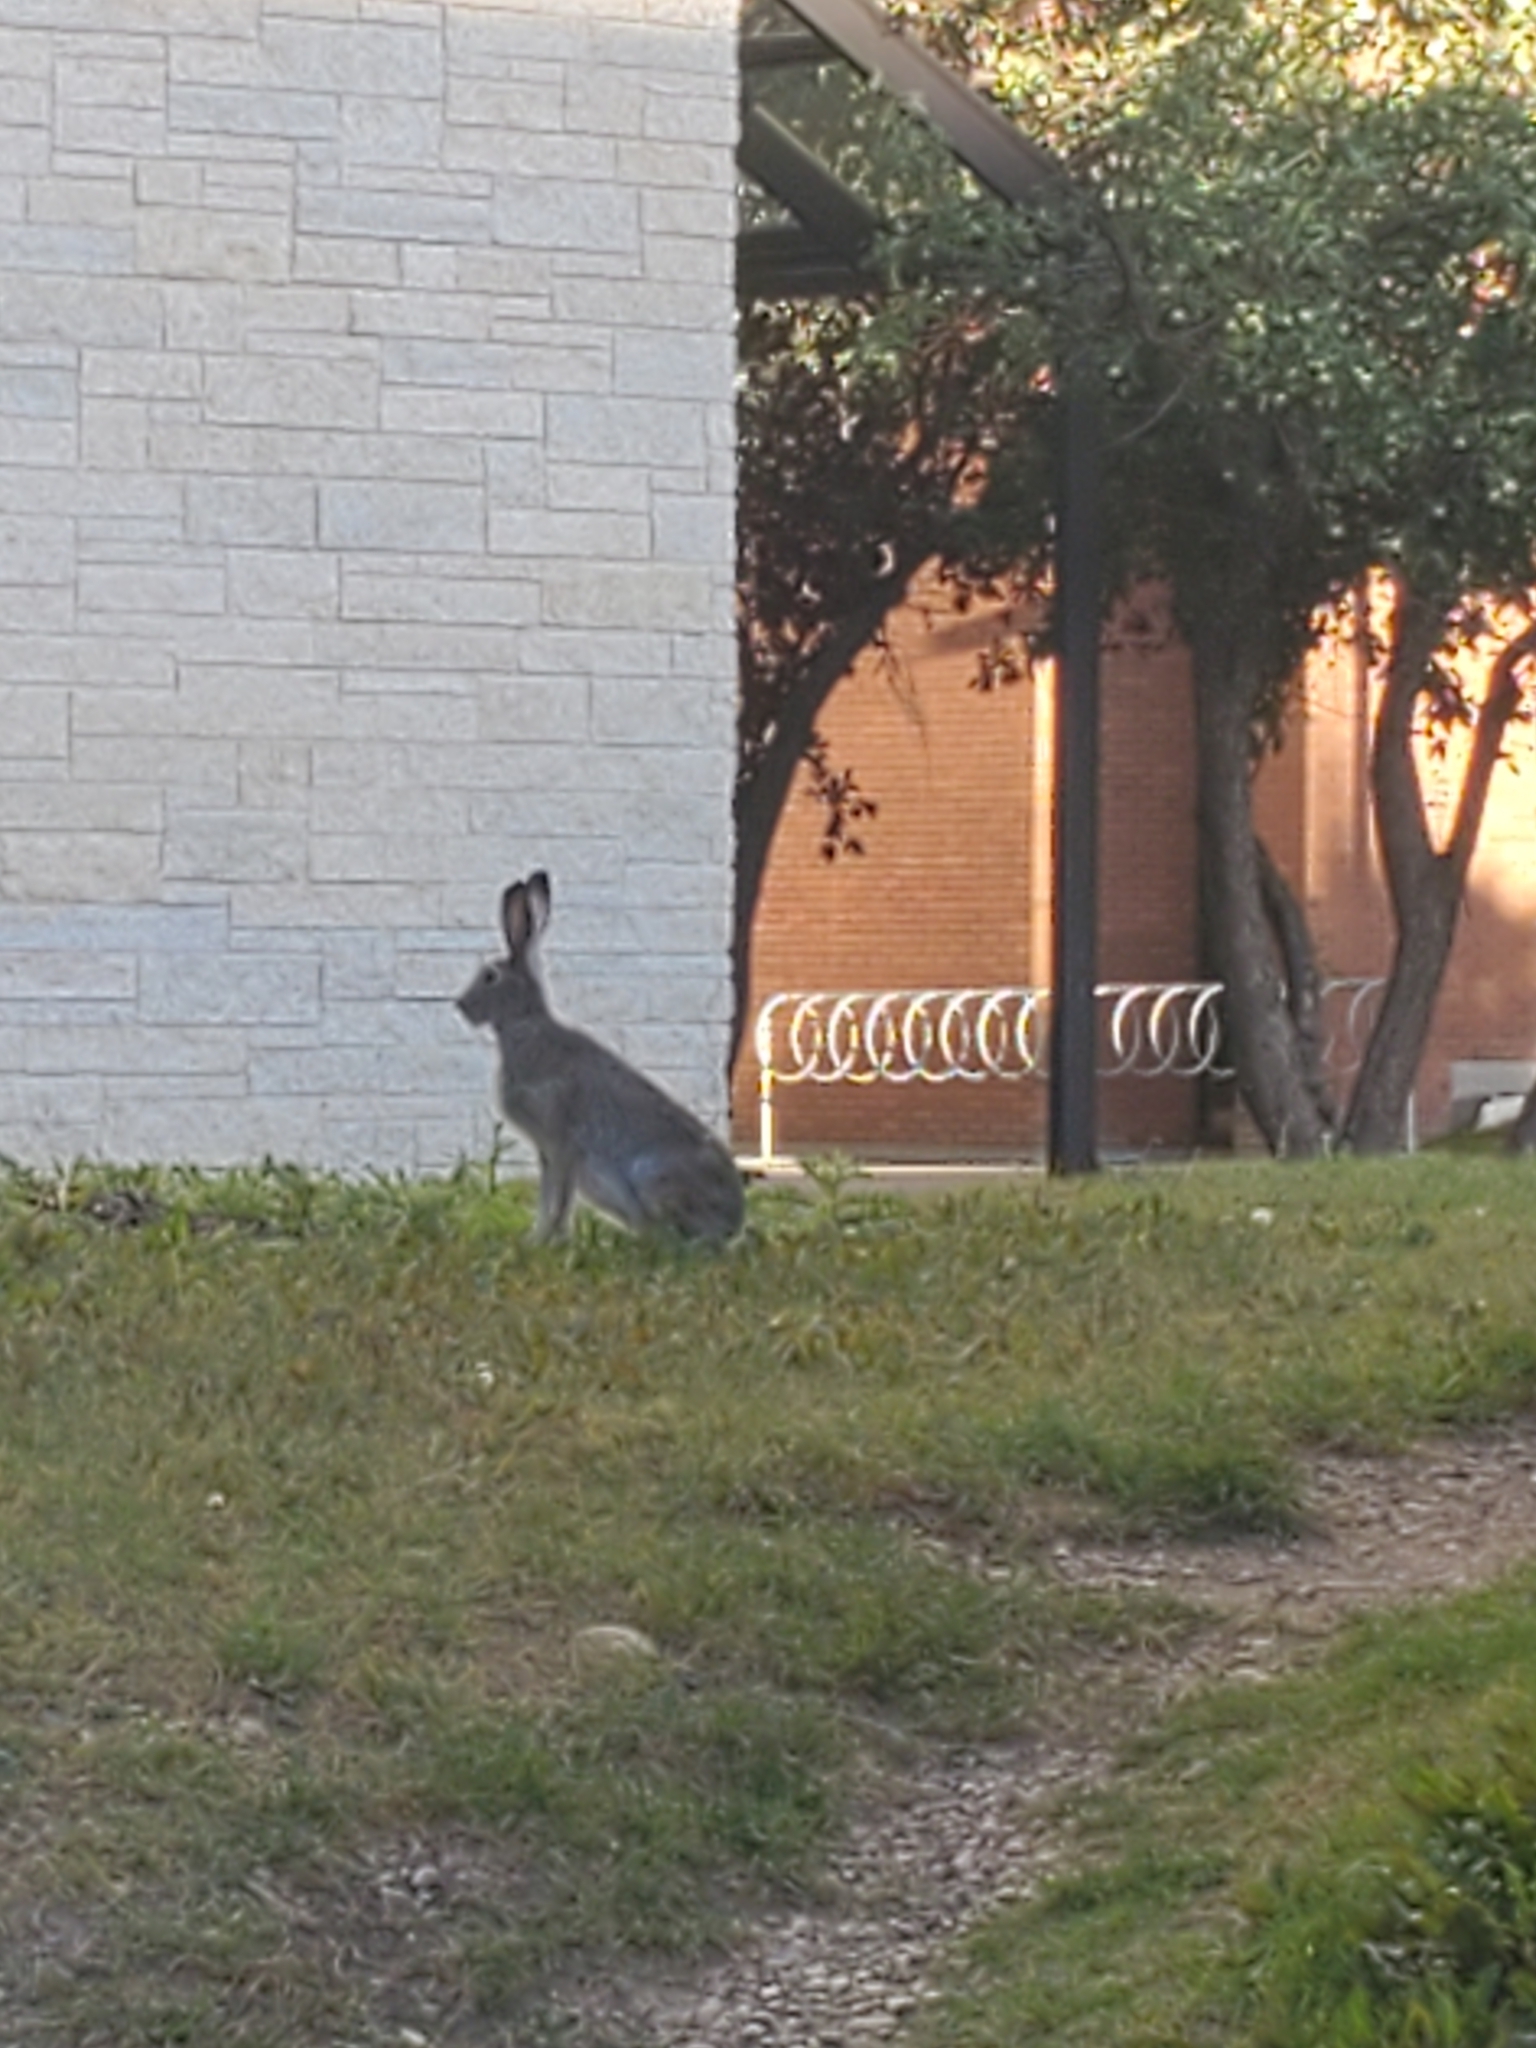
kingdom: Animalia
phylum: Chordata
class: Mammalia
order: Lagomorpha
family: Leporidae
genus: Lepus
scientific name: Lepus townsendii
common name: White-tailed jackrabbit
